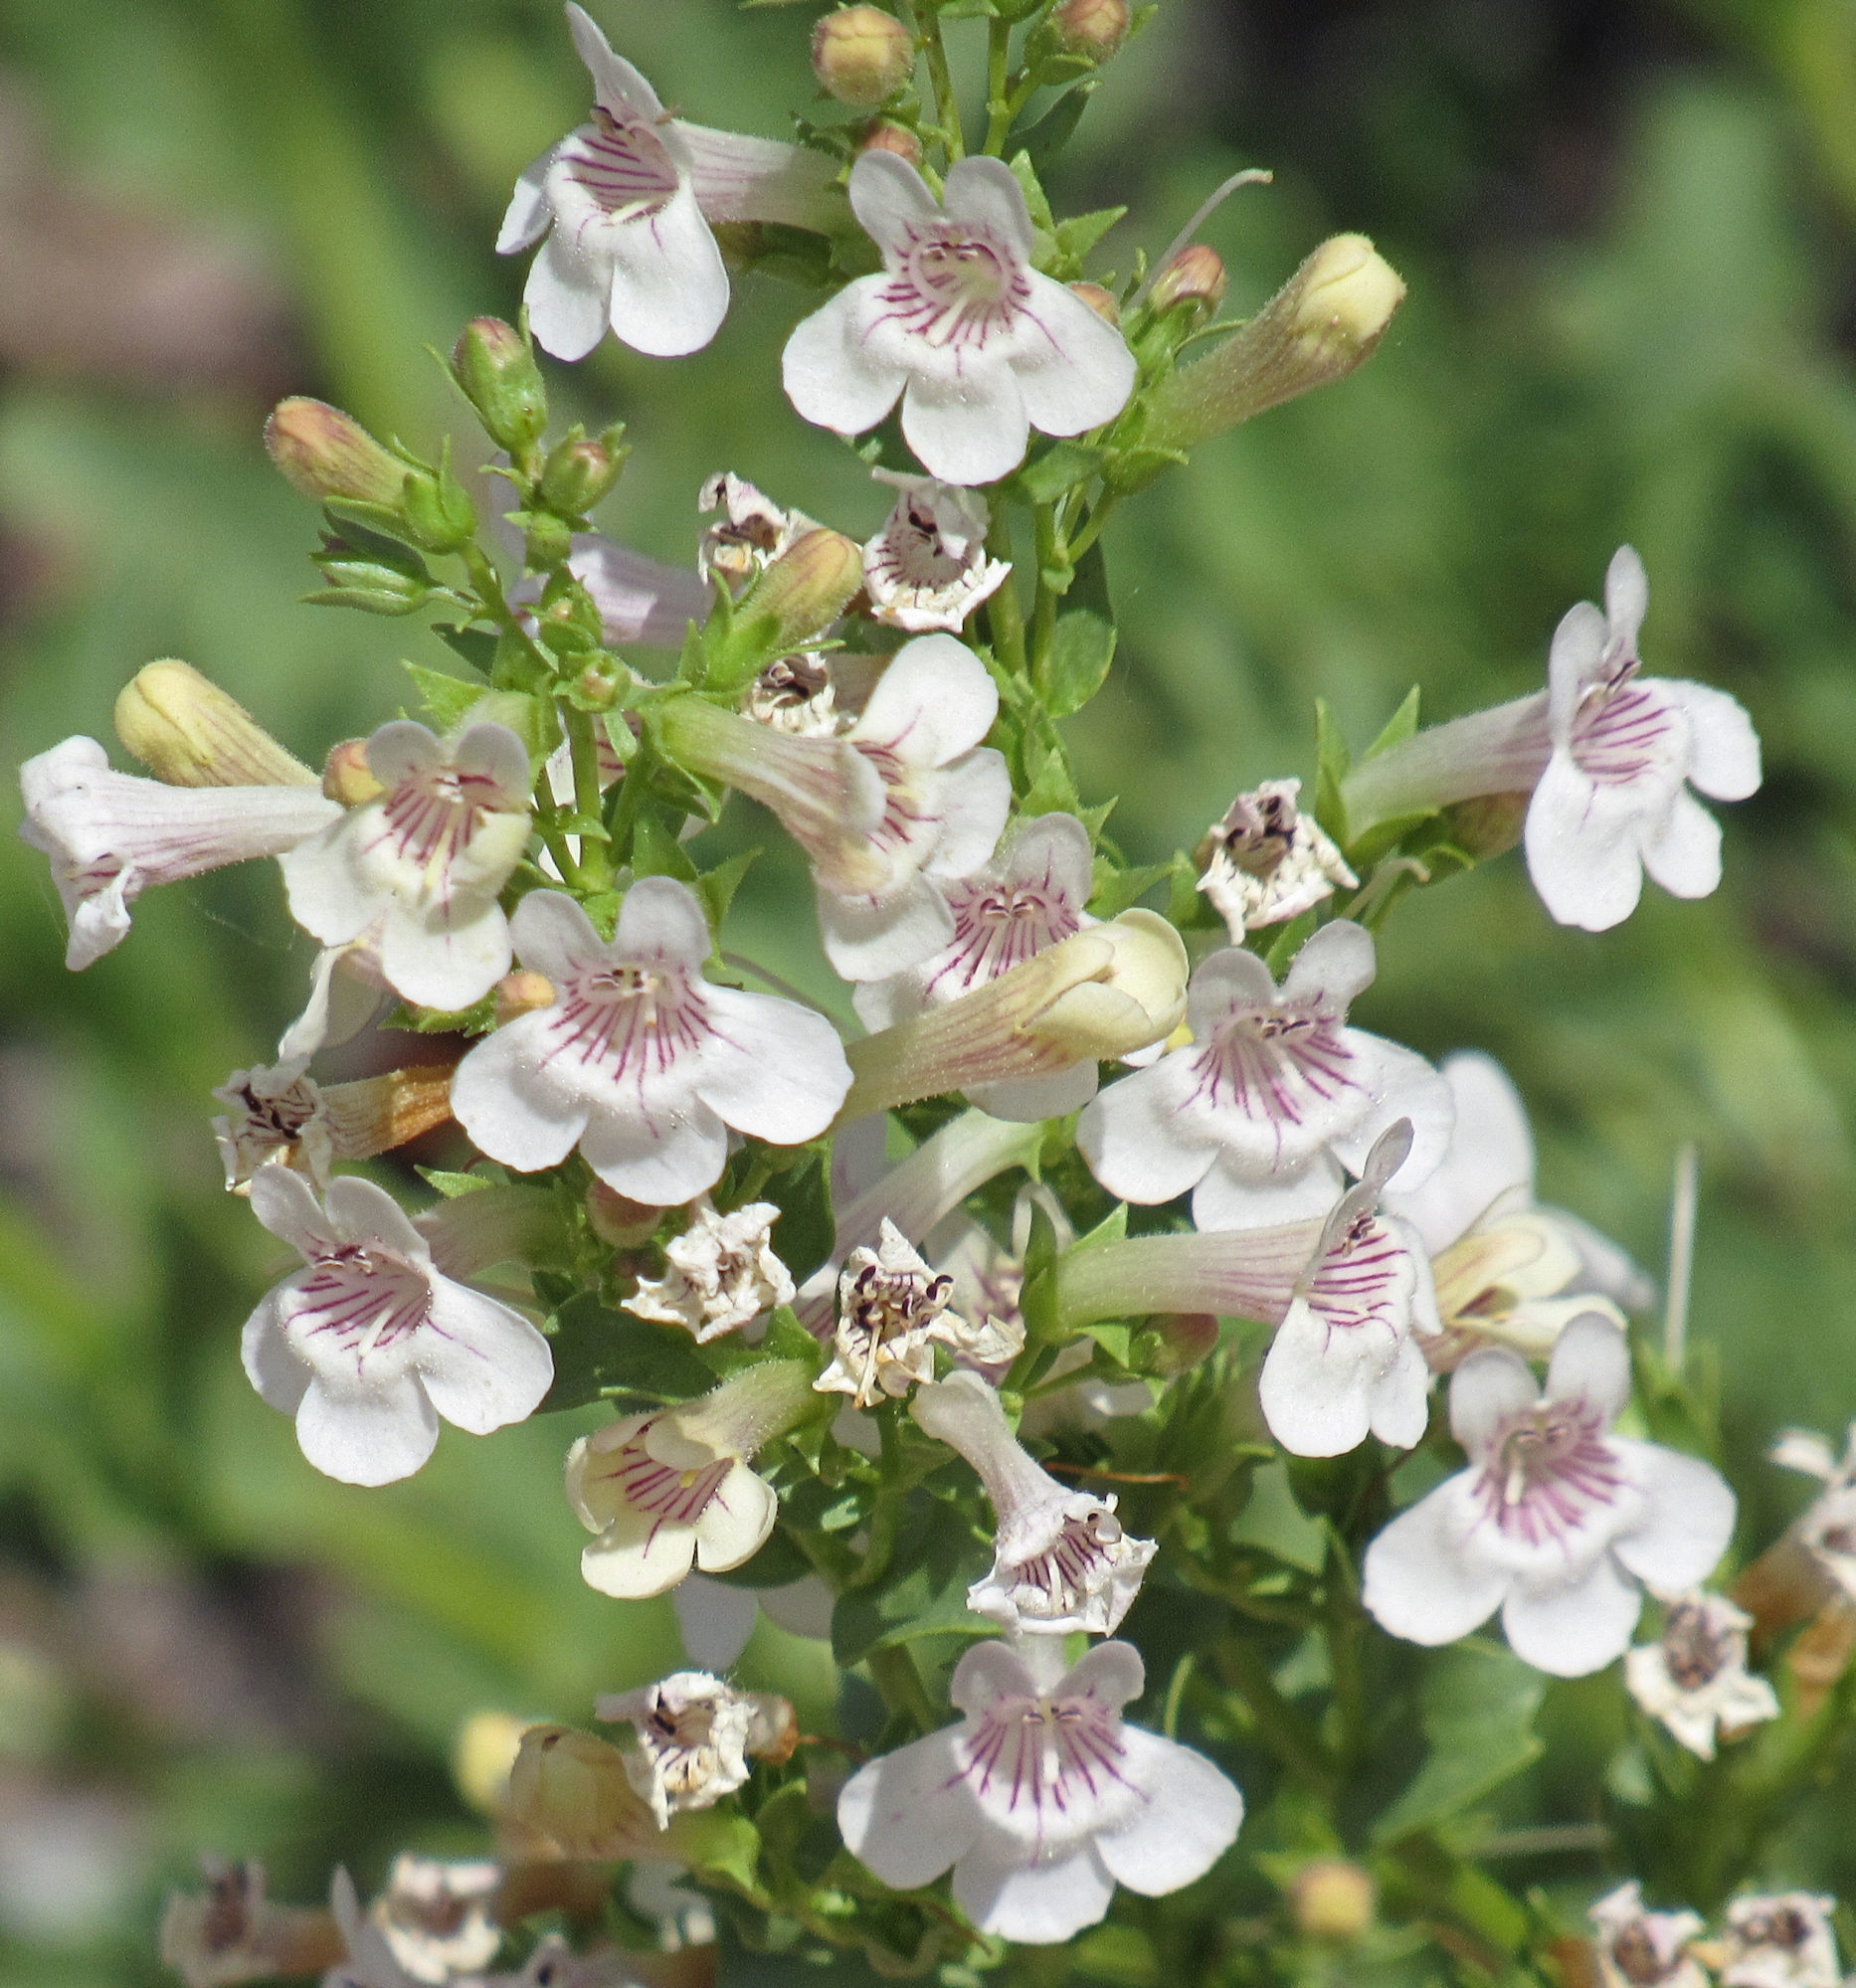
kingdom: Plantae
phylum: Tracheophyta
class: Magnoliopsida
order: Lamiales
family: Plantaginaceae
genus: Penstemon
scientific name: Penstemon deustus
